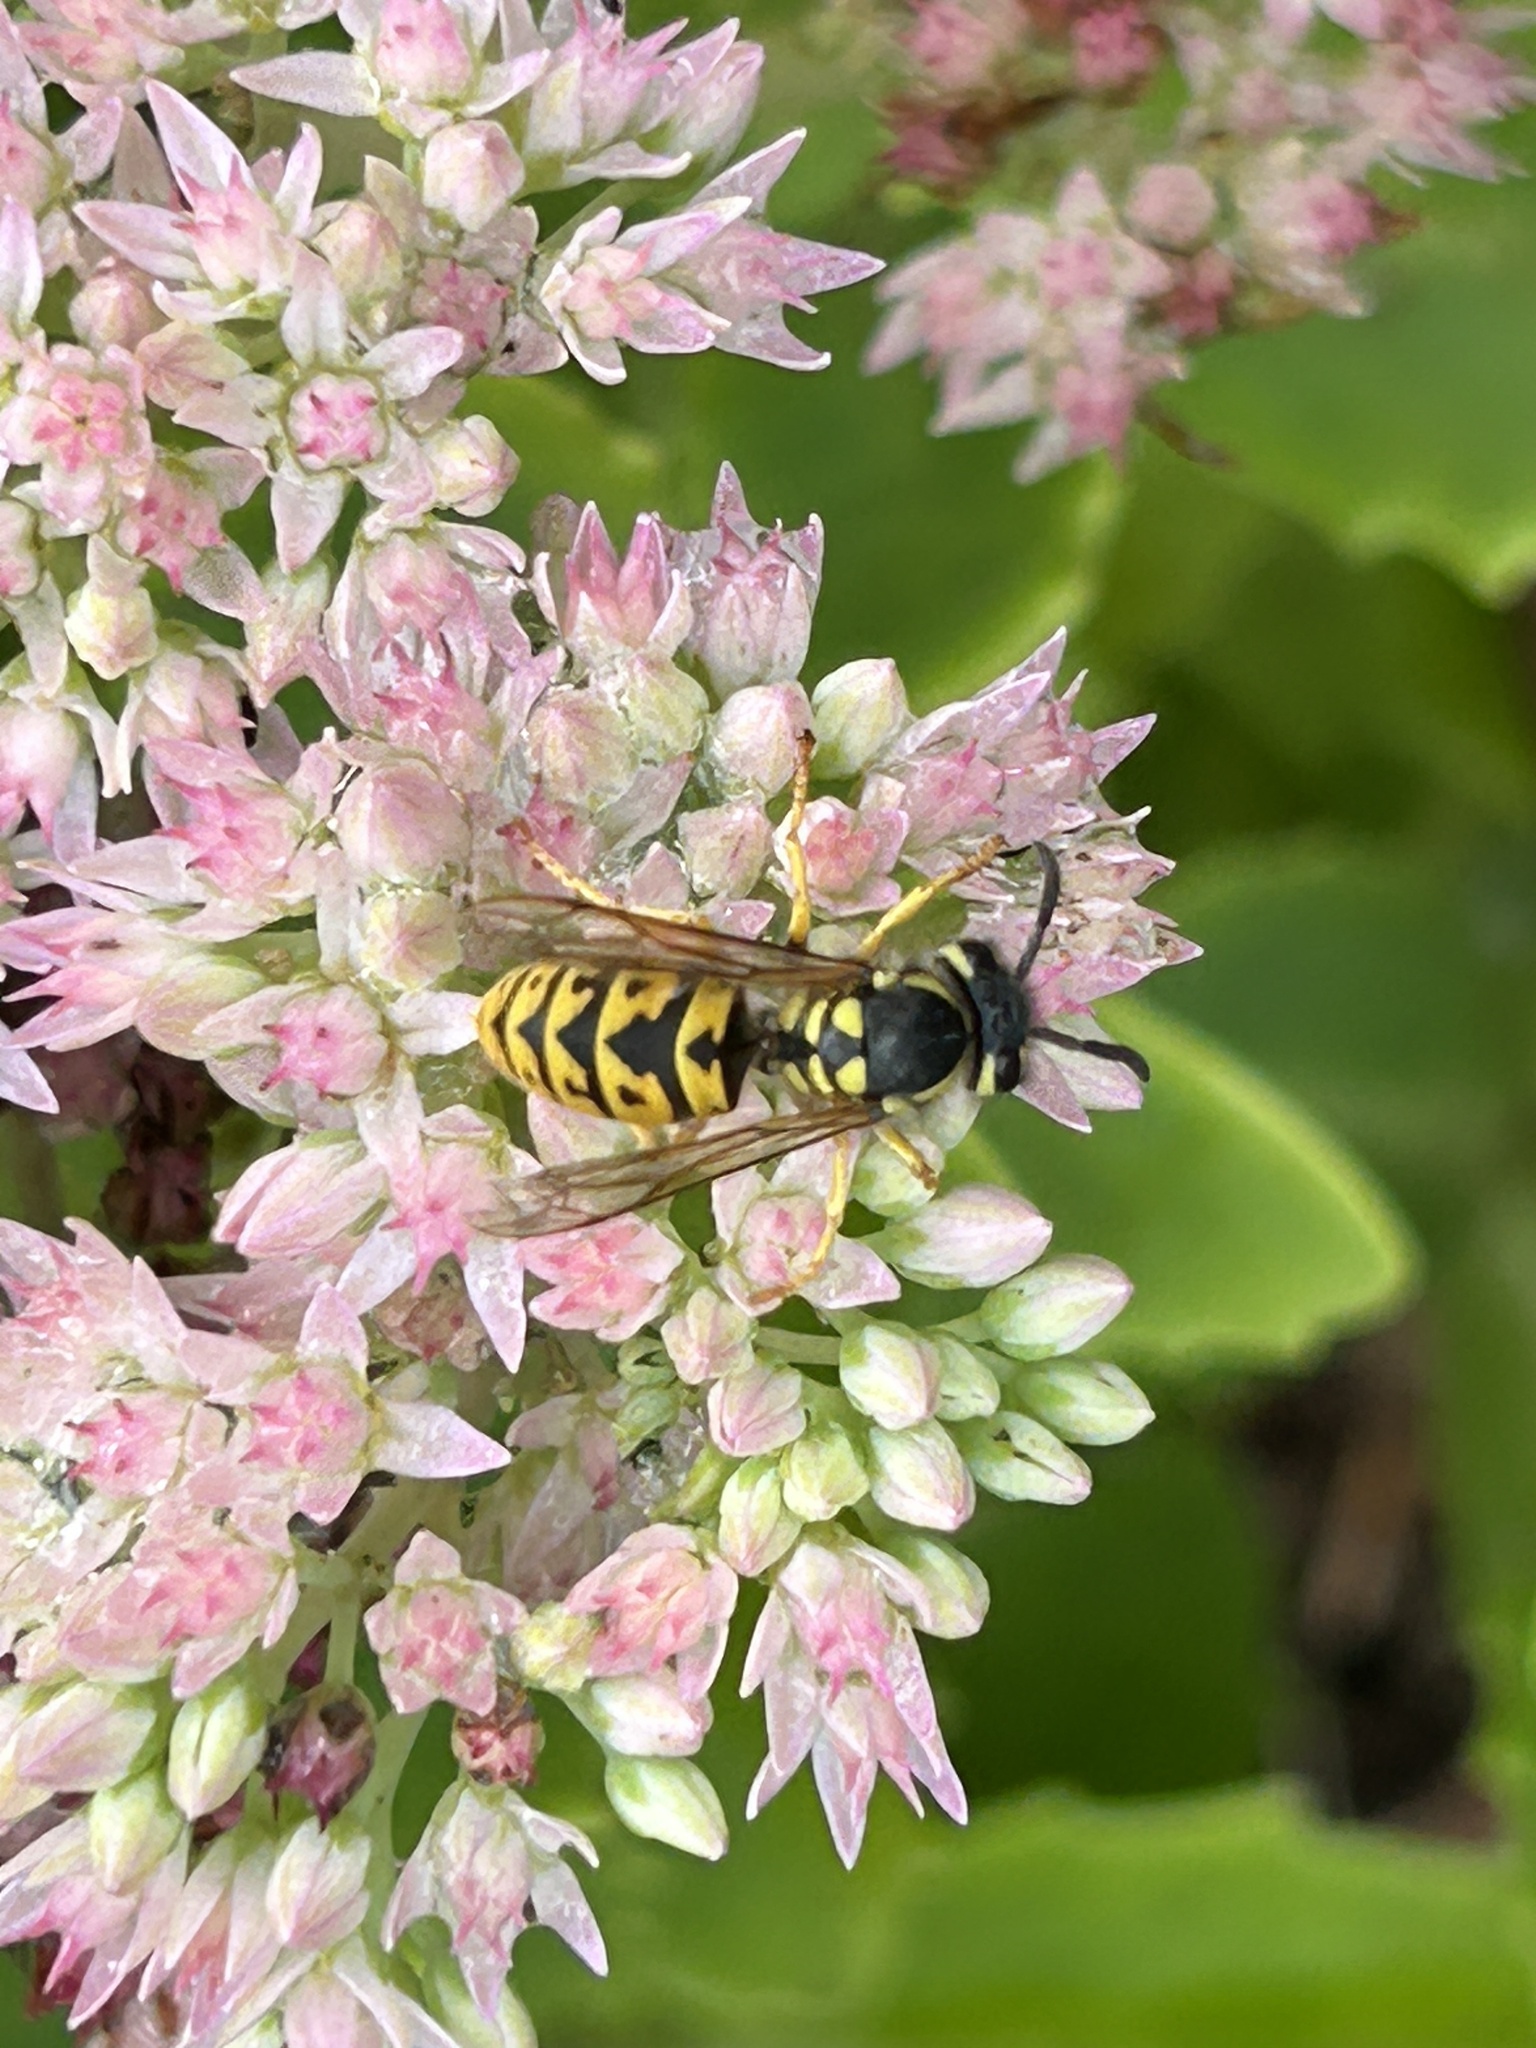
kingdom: Animalia
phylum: Arthropoda
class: Insecta
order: Hymenoptera
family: Vespidae
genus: Vespula
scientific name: Vespula germanica
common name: German wasp
